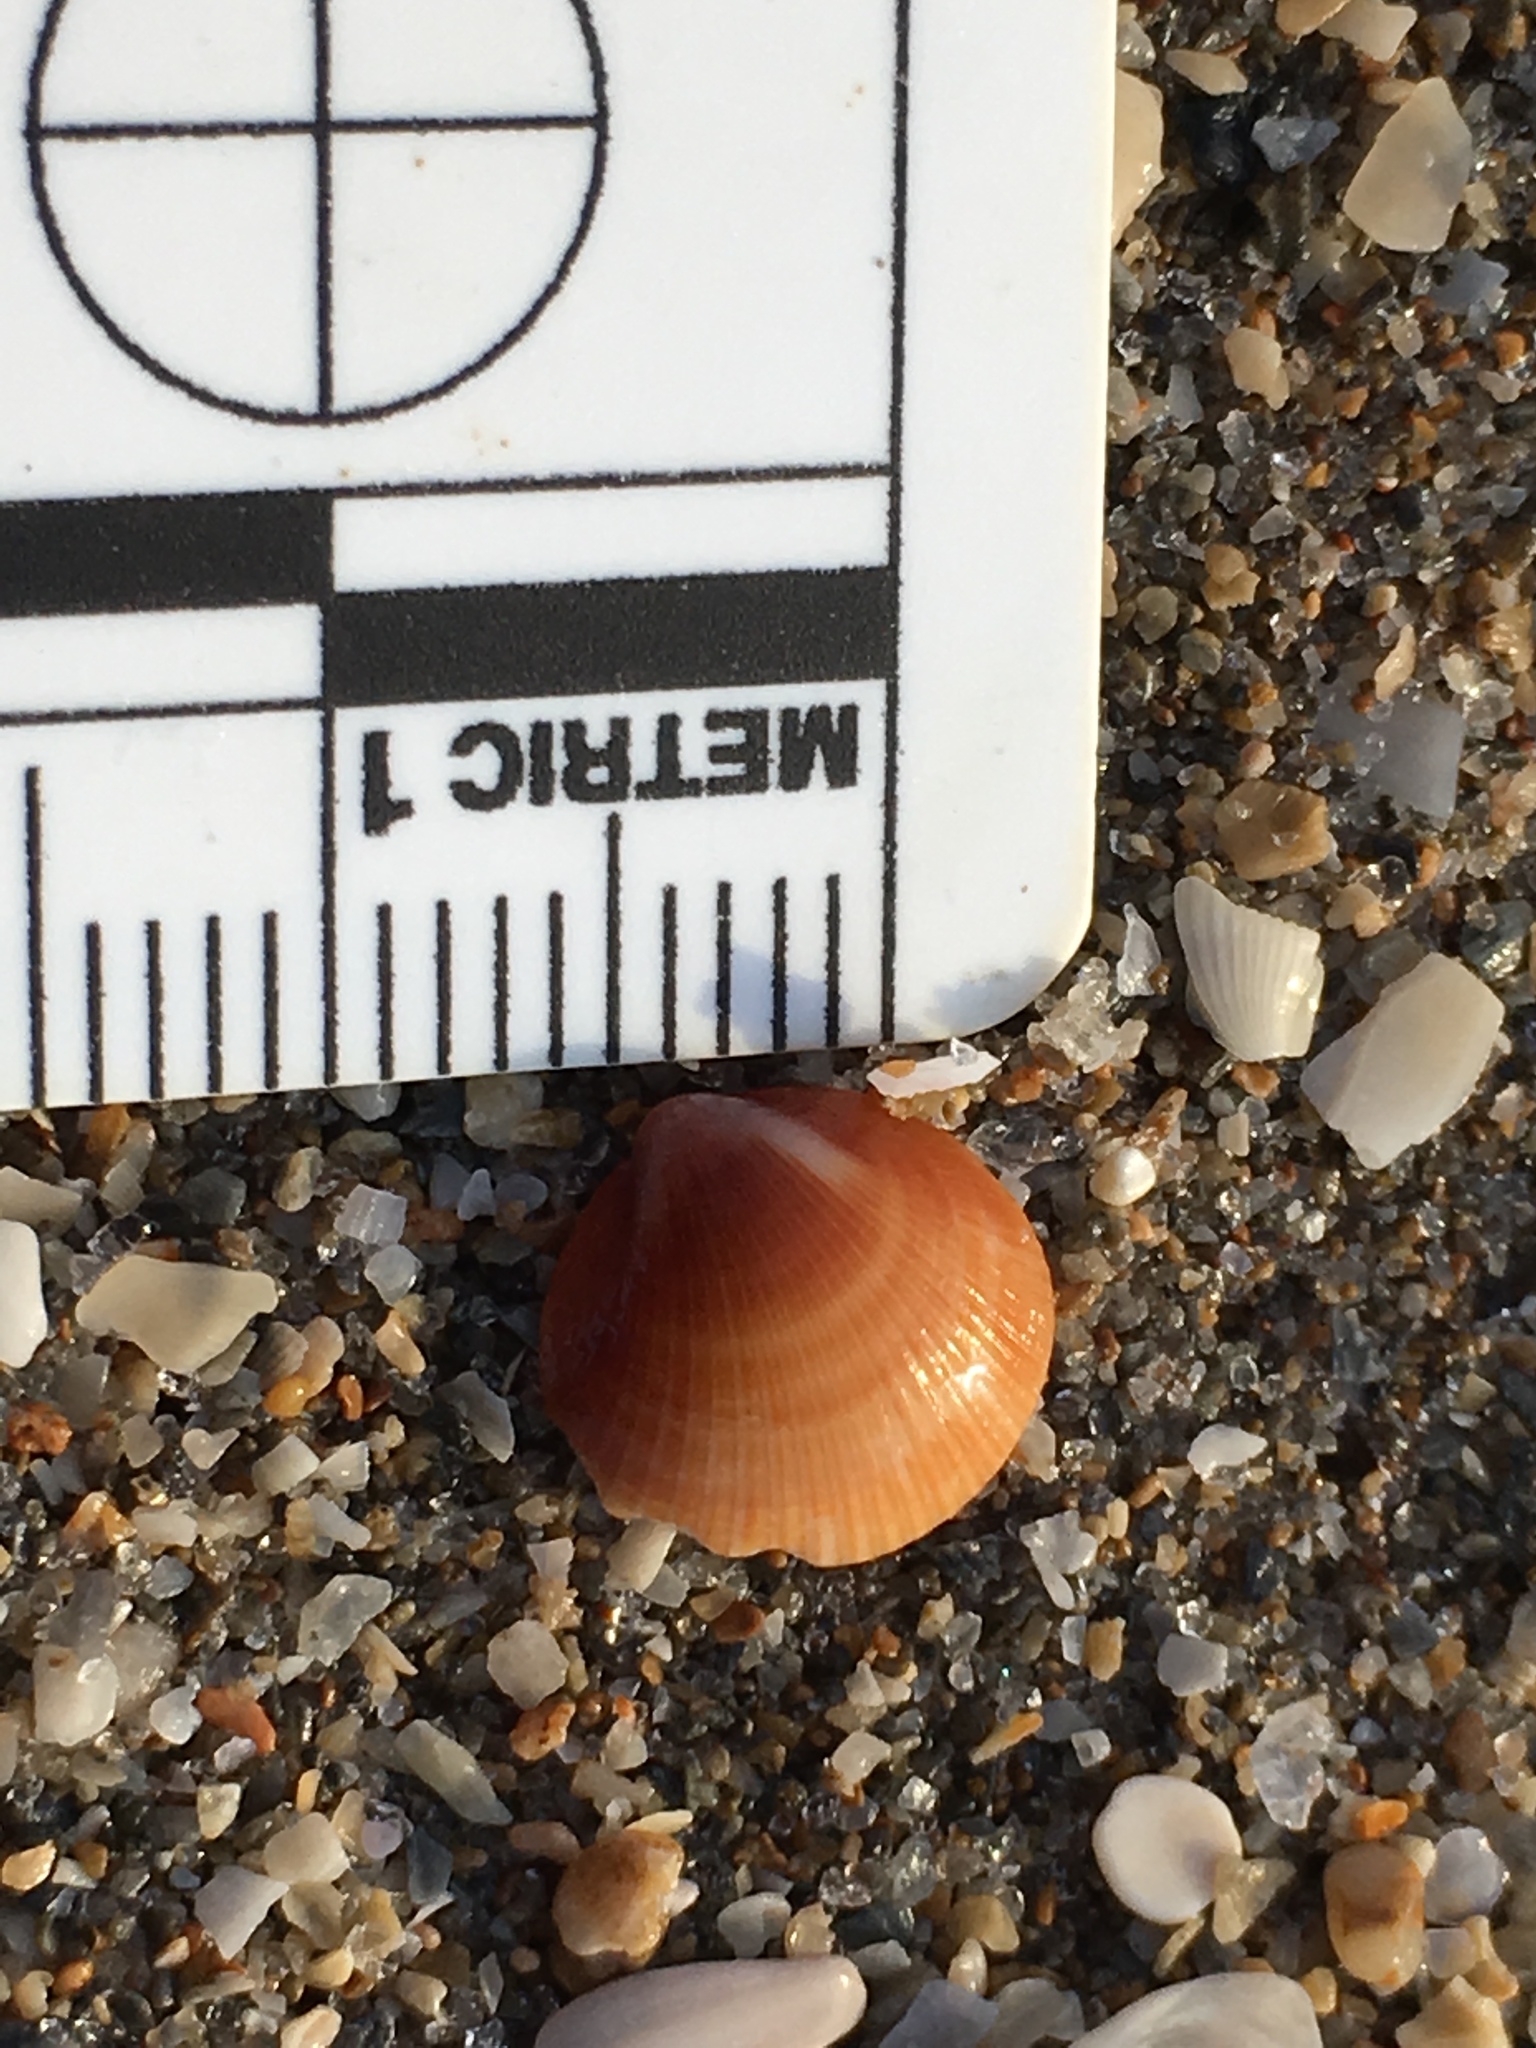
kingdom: Animalia
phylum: Mollusca
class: Bivalvia
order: Arcida
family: Glycymerididae
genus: Glycymeris
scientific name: Glycymeris spectralis
